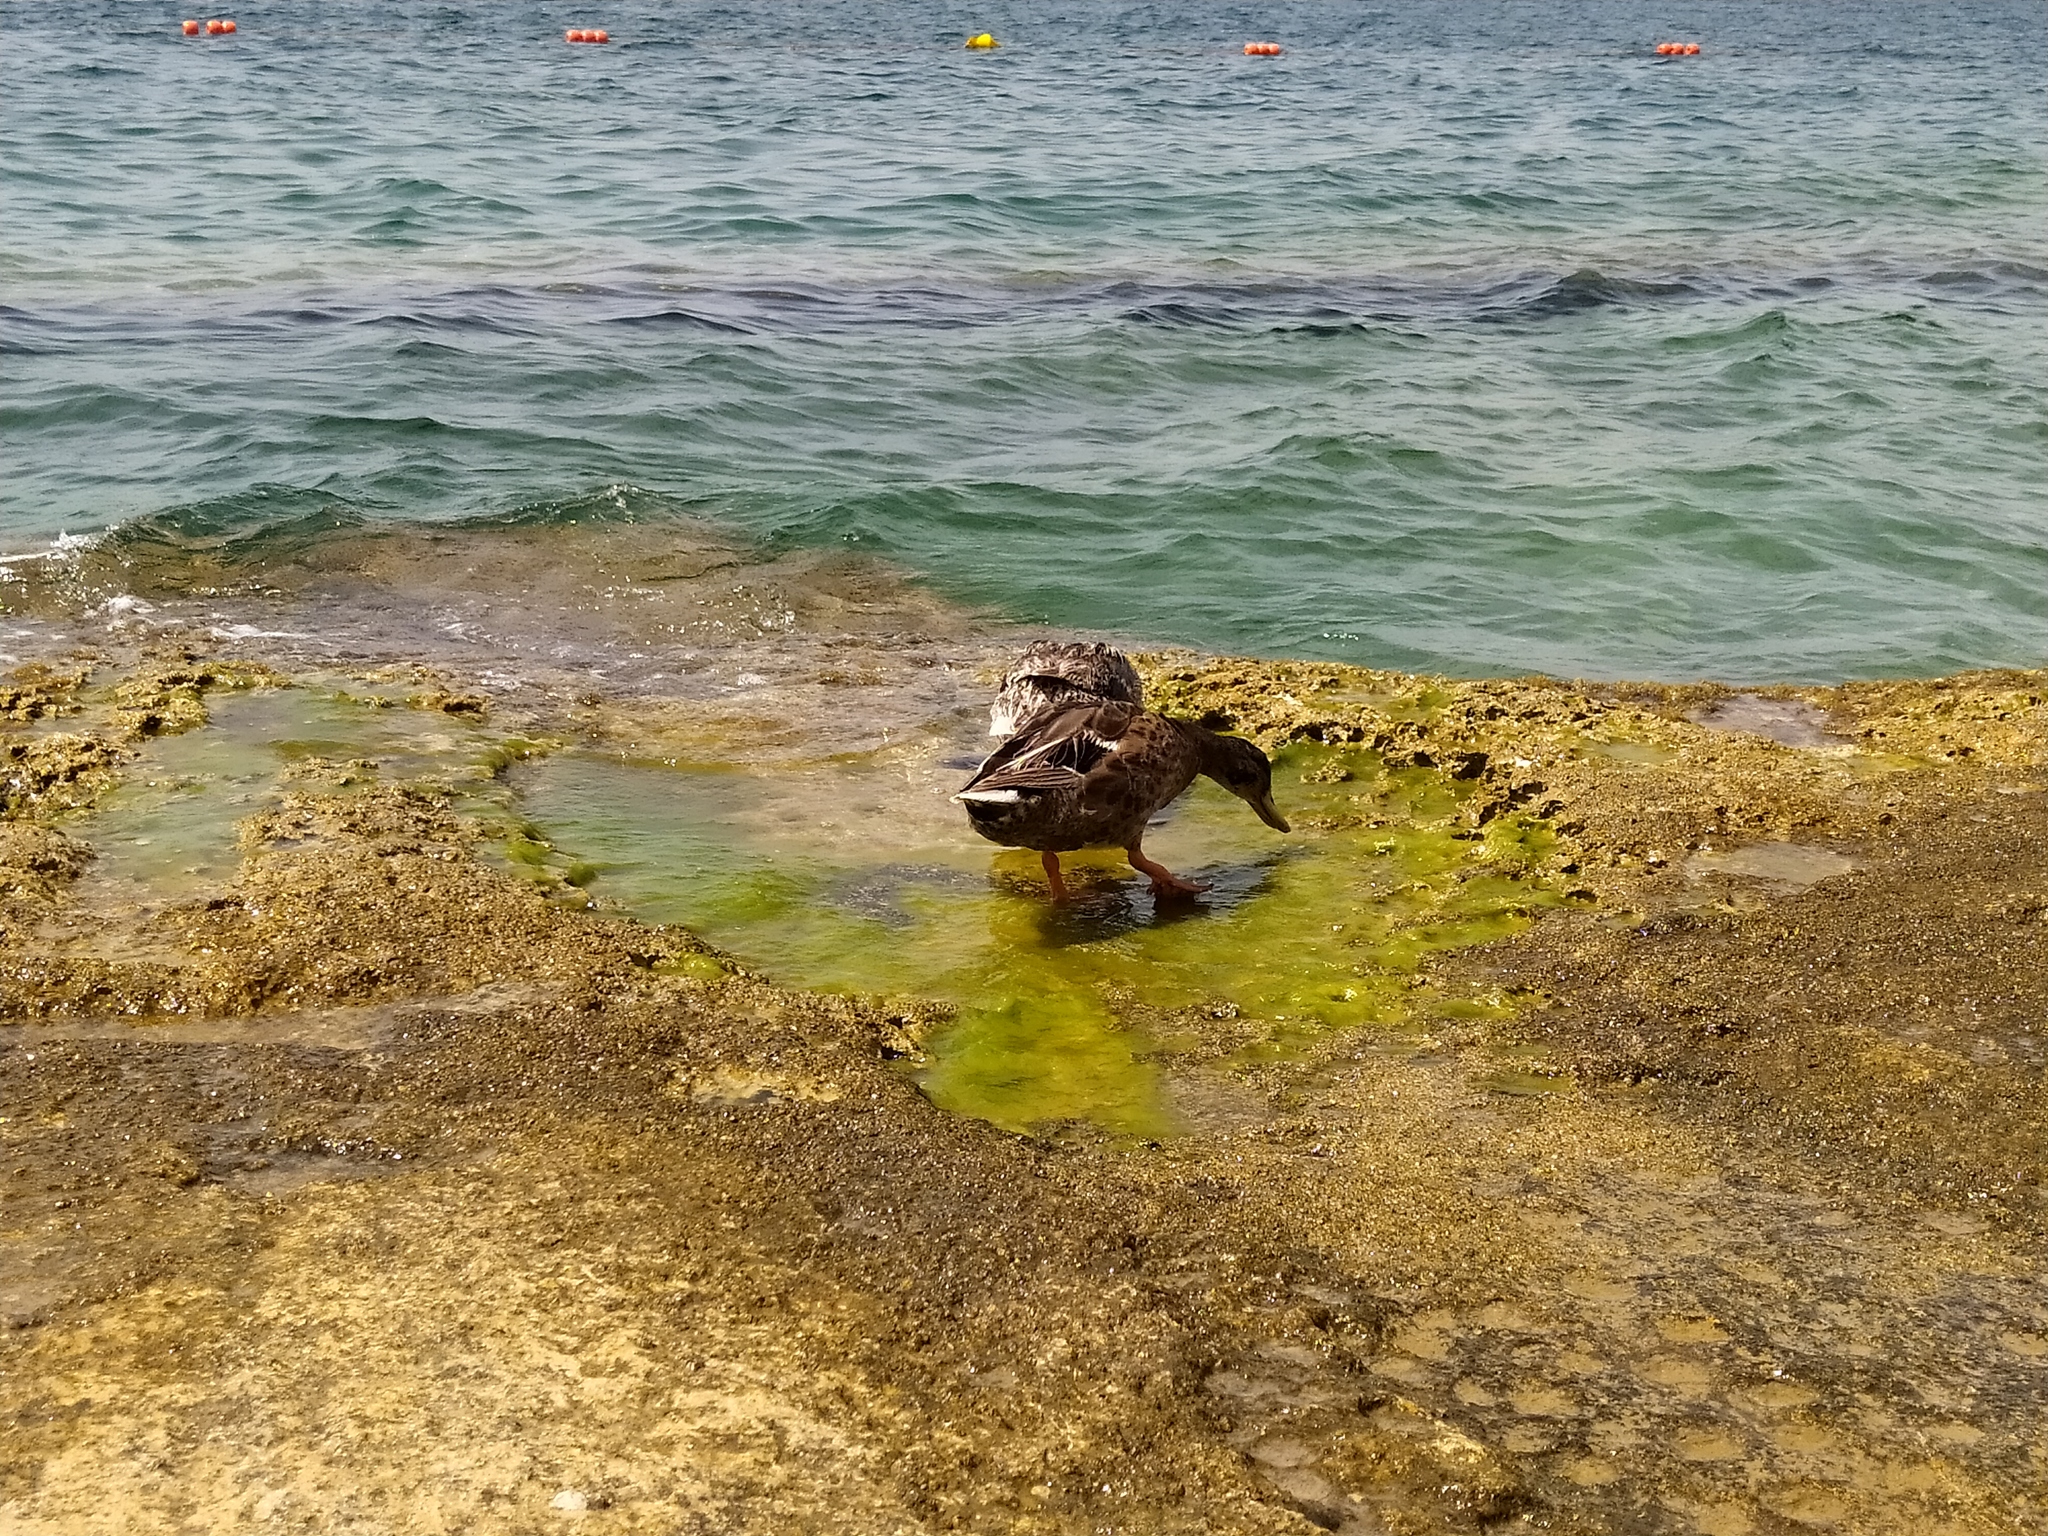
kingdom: Animalia
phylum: Chordata
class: Aves
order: Anseriformes
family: Anatidae
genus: Anas
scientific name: Anas platyrhynchos
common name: Mallard
